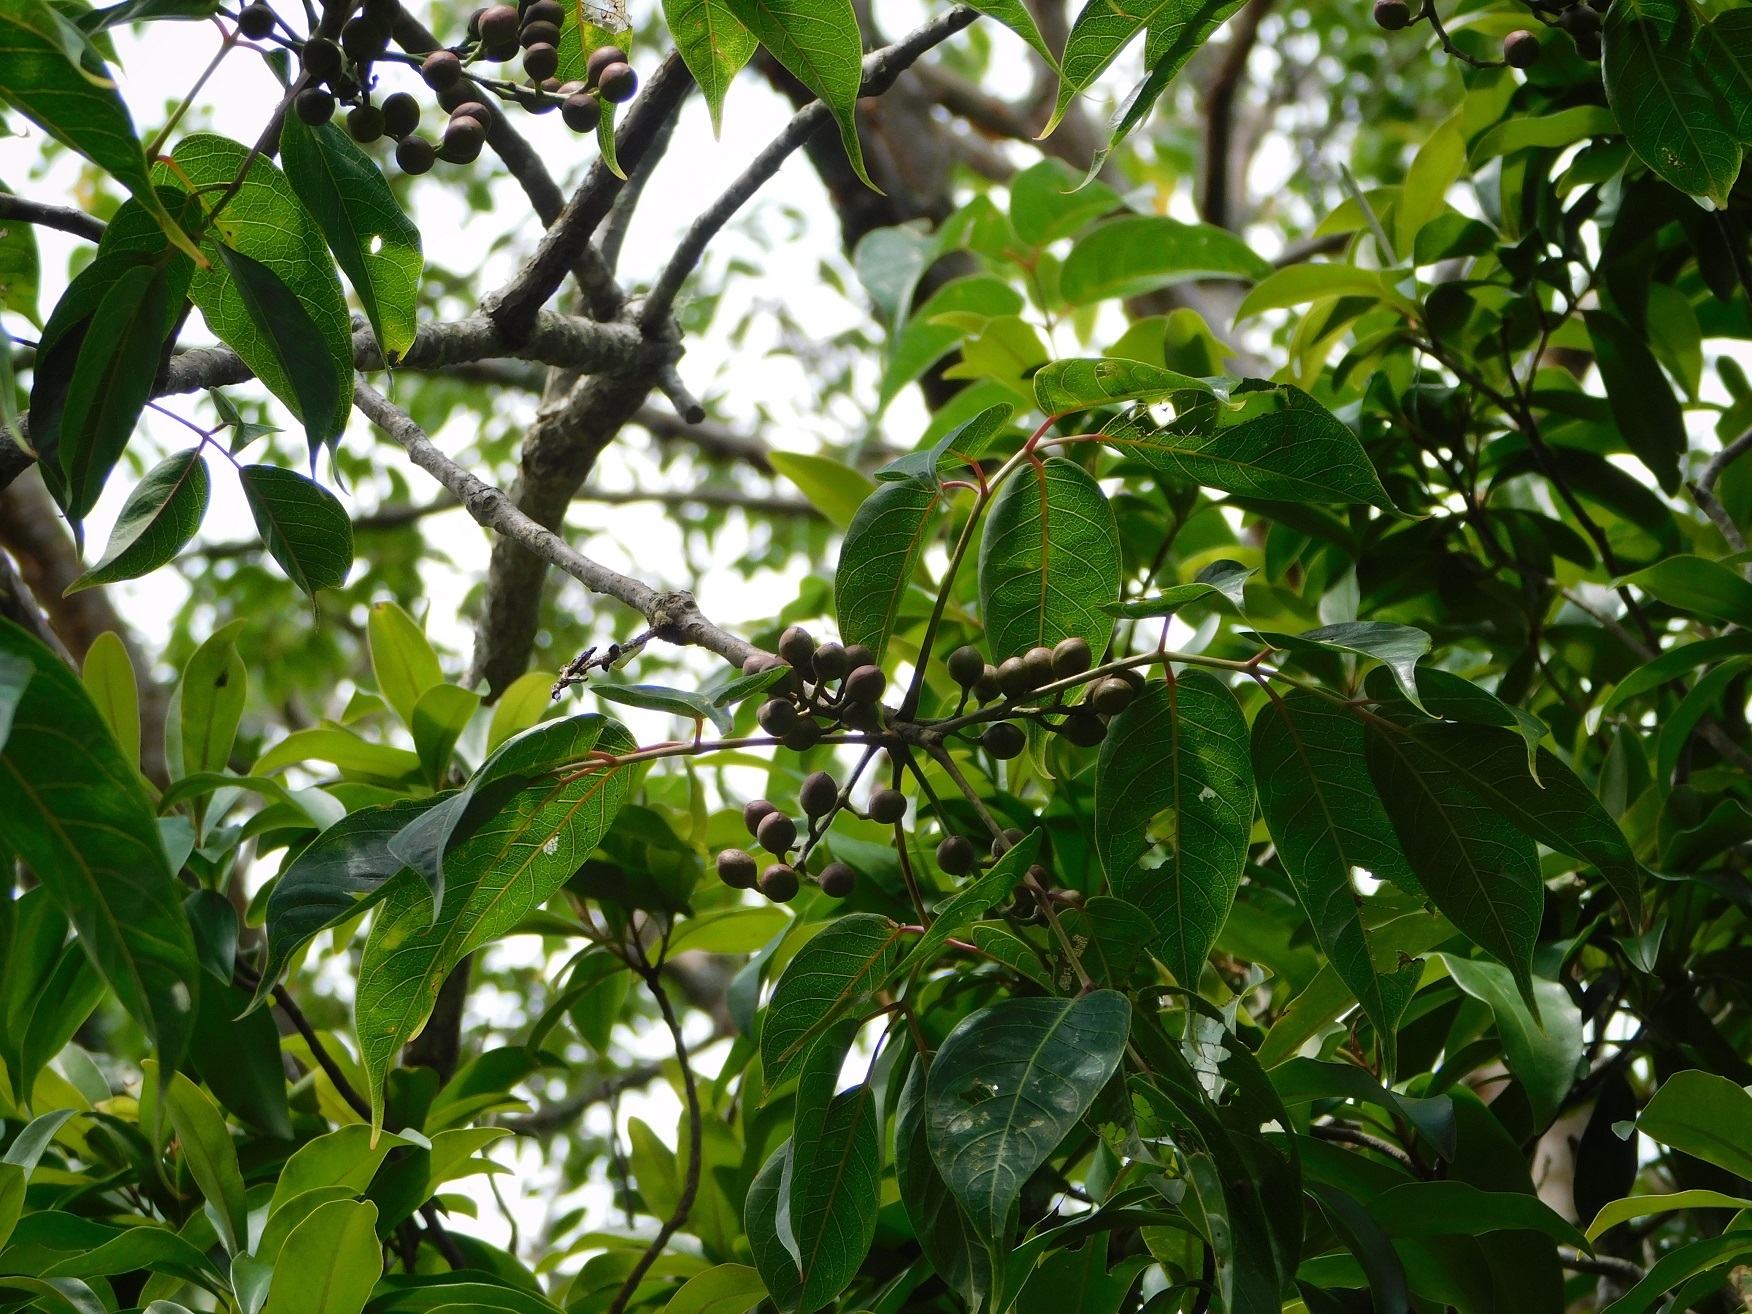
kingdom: Plantae
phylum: Tracheophyta
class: Magnoliopsida
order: Sapindales
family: Burseraceae
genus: Bursera
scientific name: Bursera simaruba
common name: Turpentine tree
